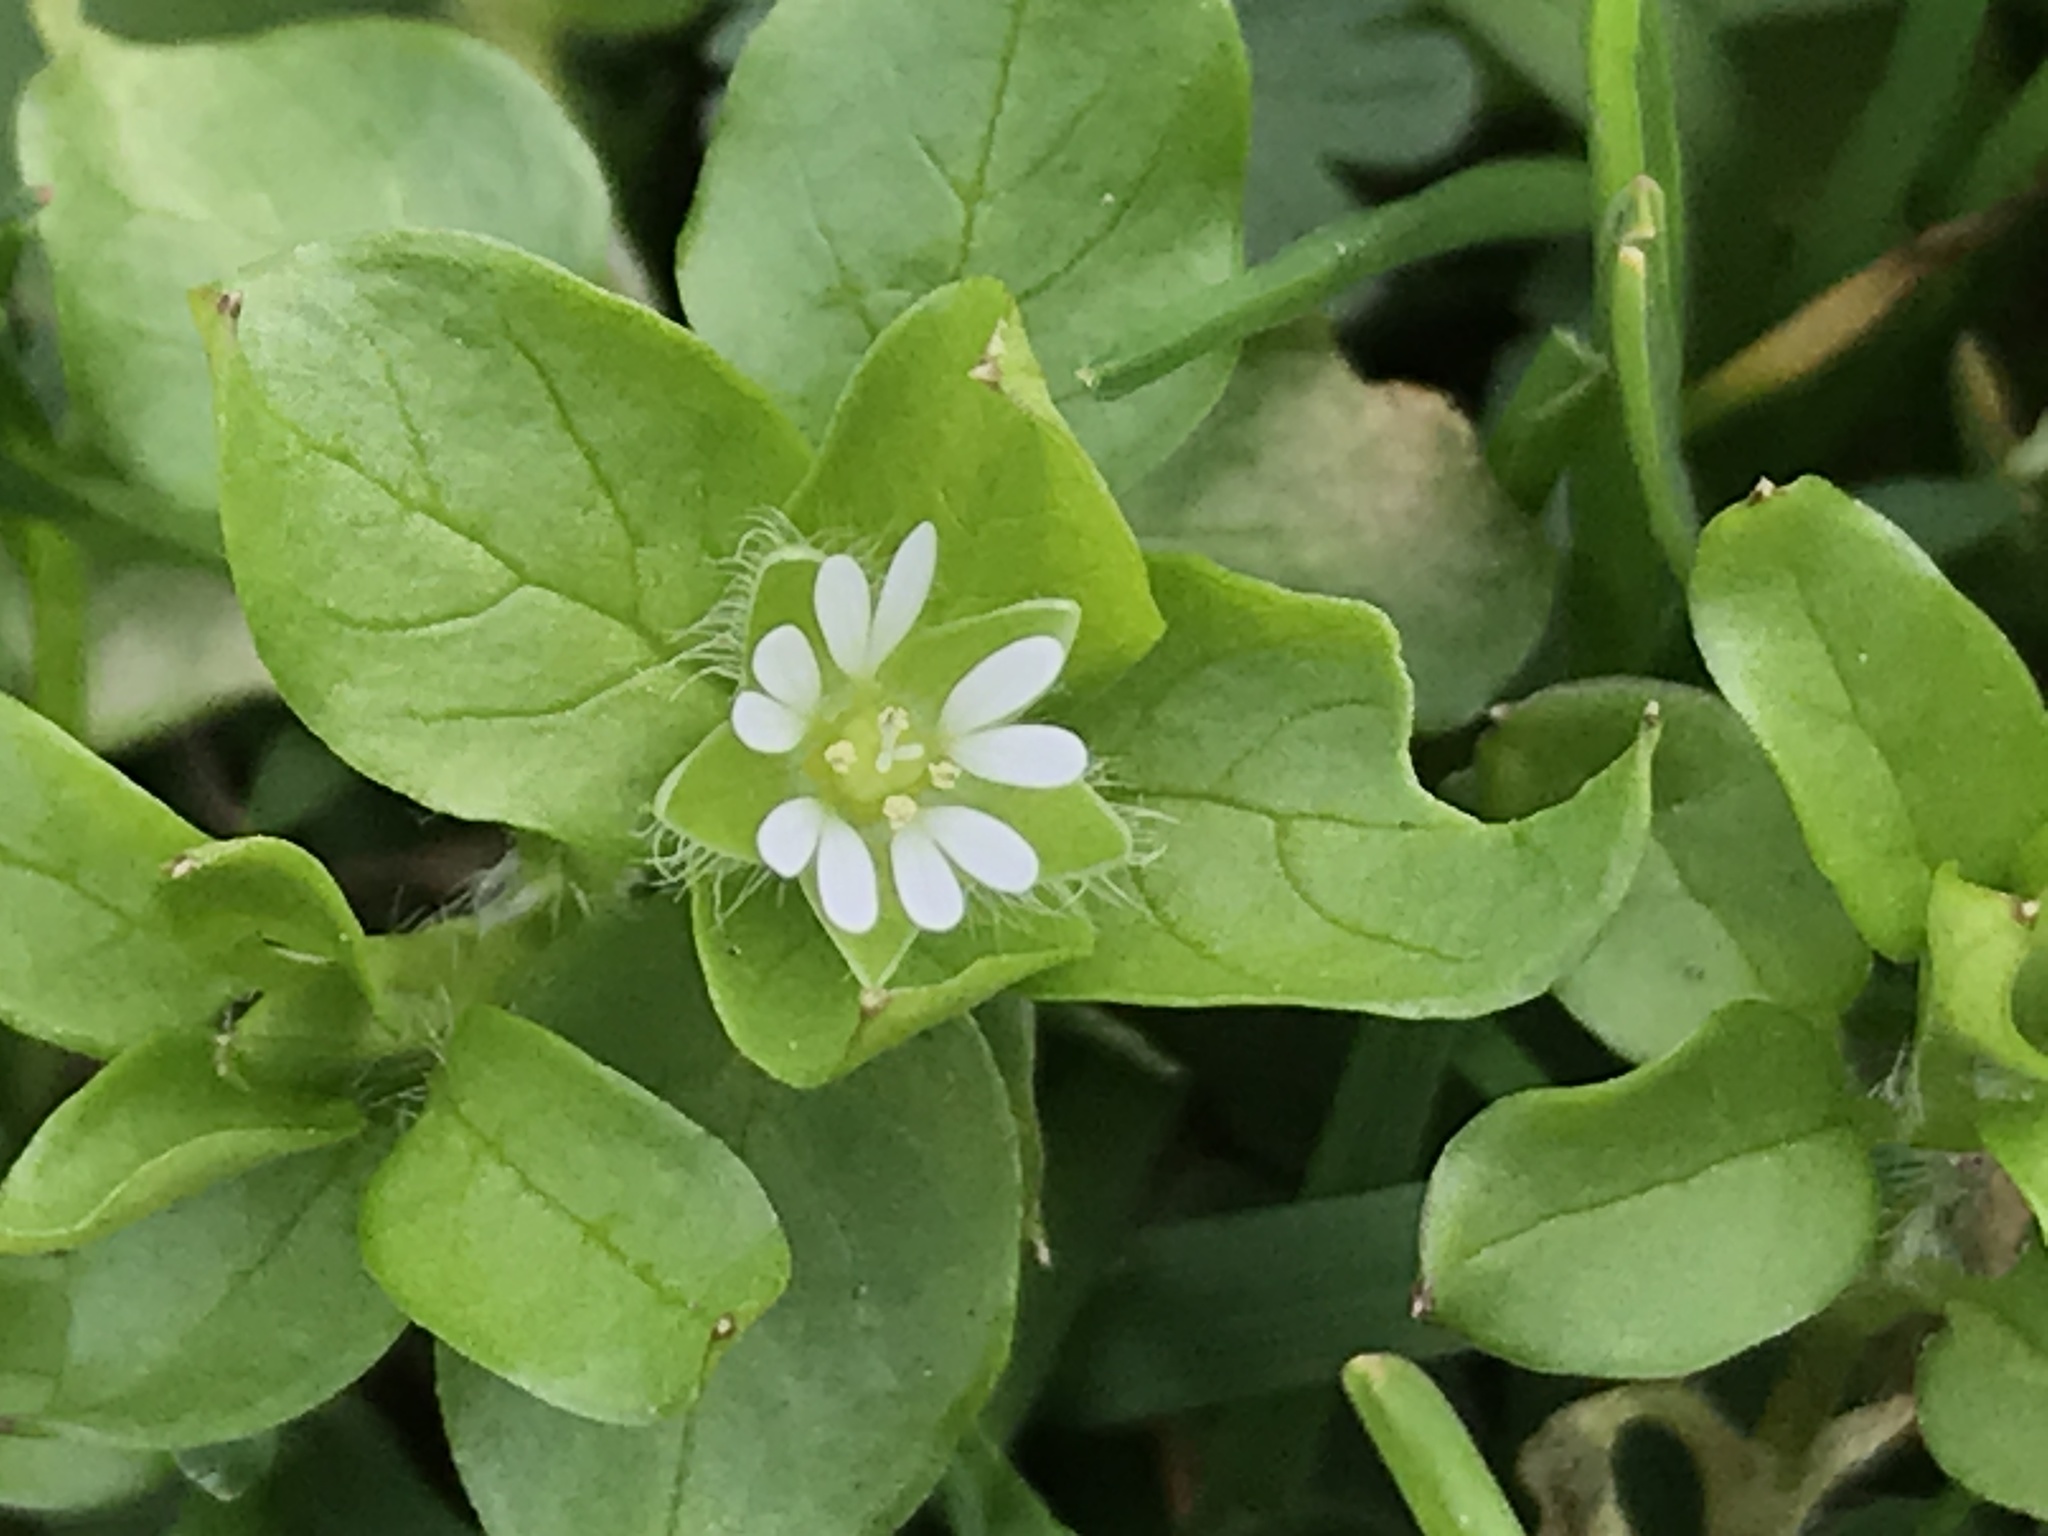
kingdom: Plantae
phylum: Tracheophyta
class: Magnoliopsida
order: Caryophyllales
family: Caryophyllaceae
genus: Stellaria
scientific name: Stellaria media
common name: Common chickweed
